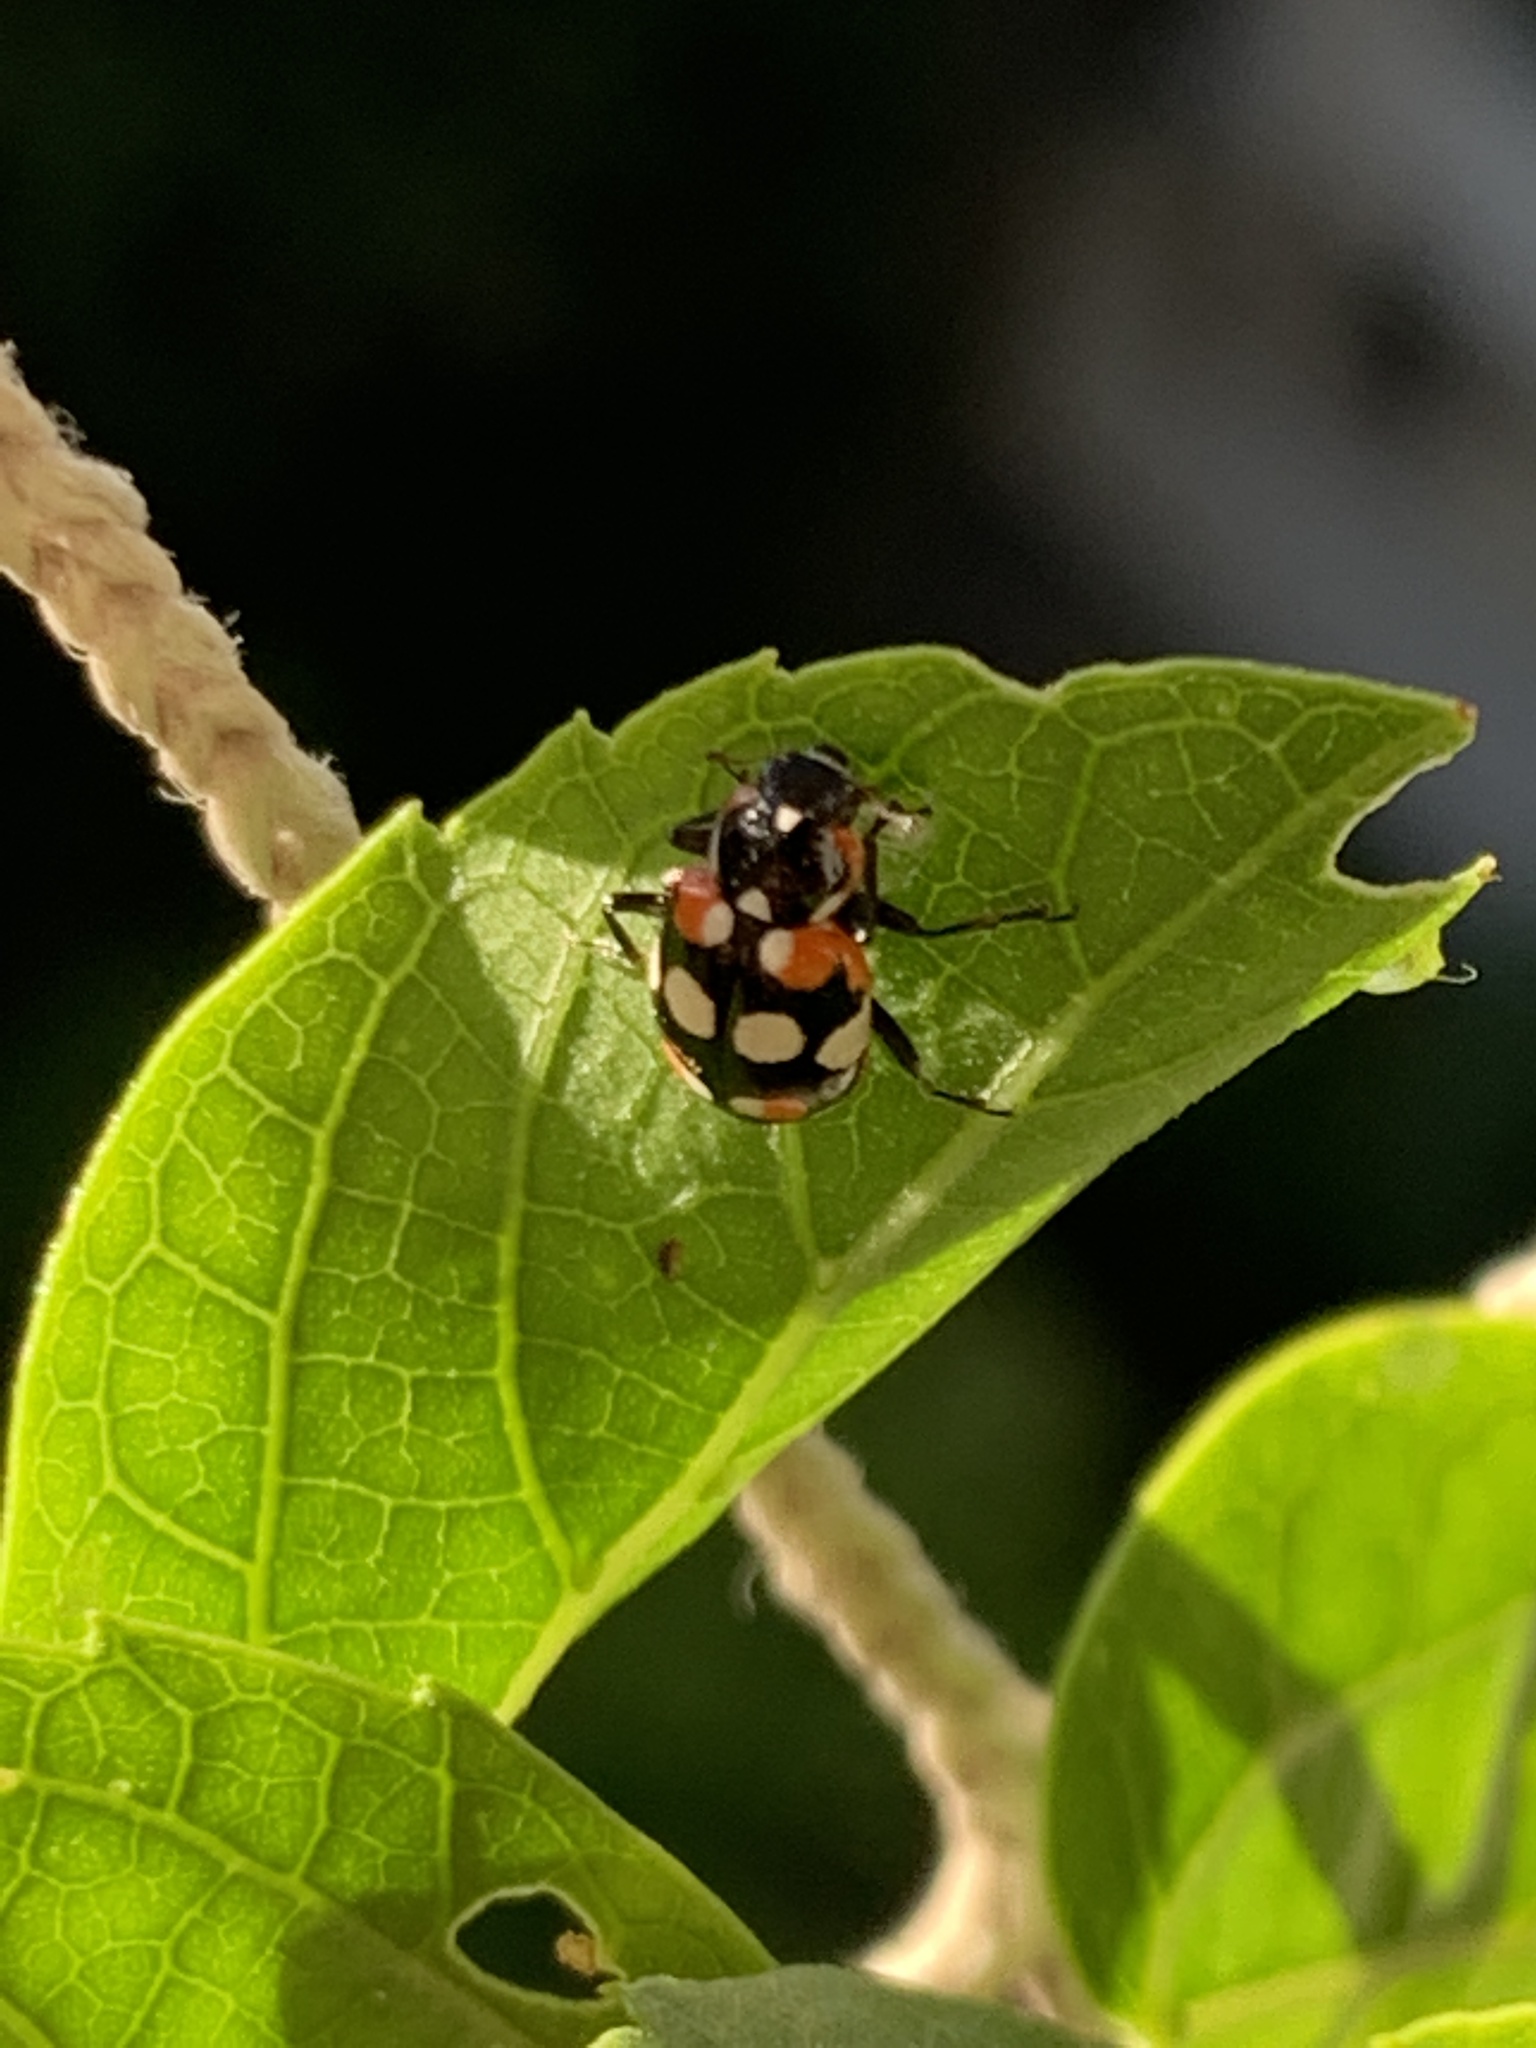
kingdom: Animalia
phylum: Arthropoda
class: Insecta
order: Coleoptera
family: Coccinellidae
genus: Eriopis
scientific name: Eriopis connexa
